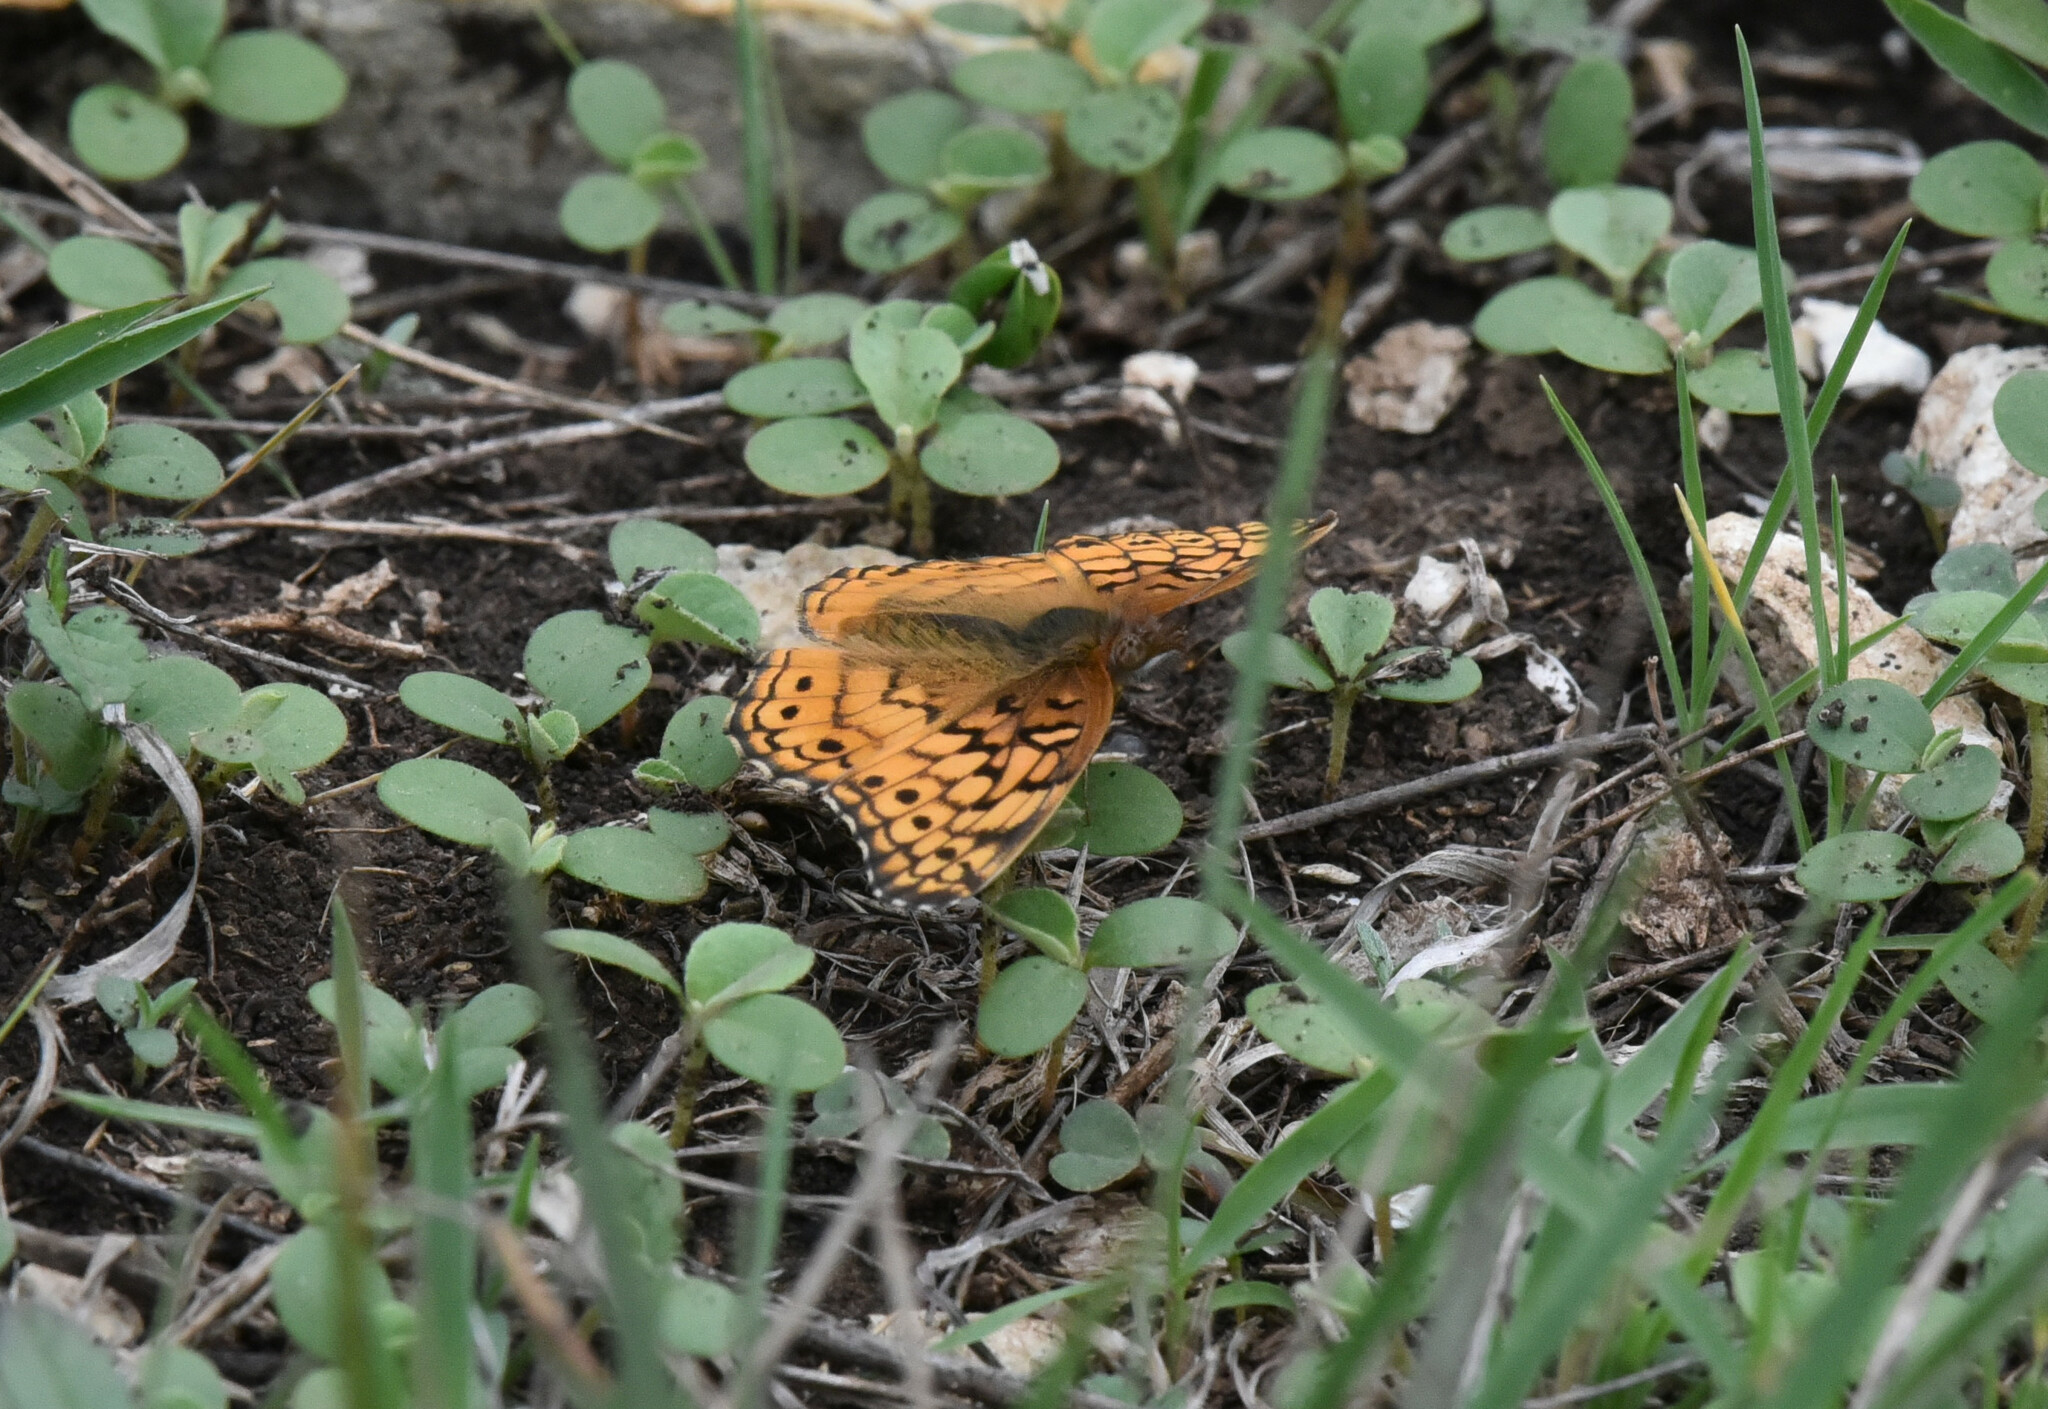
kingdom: Animalia
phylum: Arthropoda
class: Insecta
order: Lepidoptera
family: Nymphalidae
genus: Euptoieta
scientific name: Euptoieta claudia
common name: Variegated fritillary
